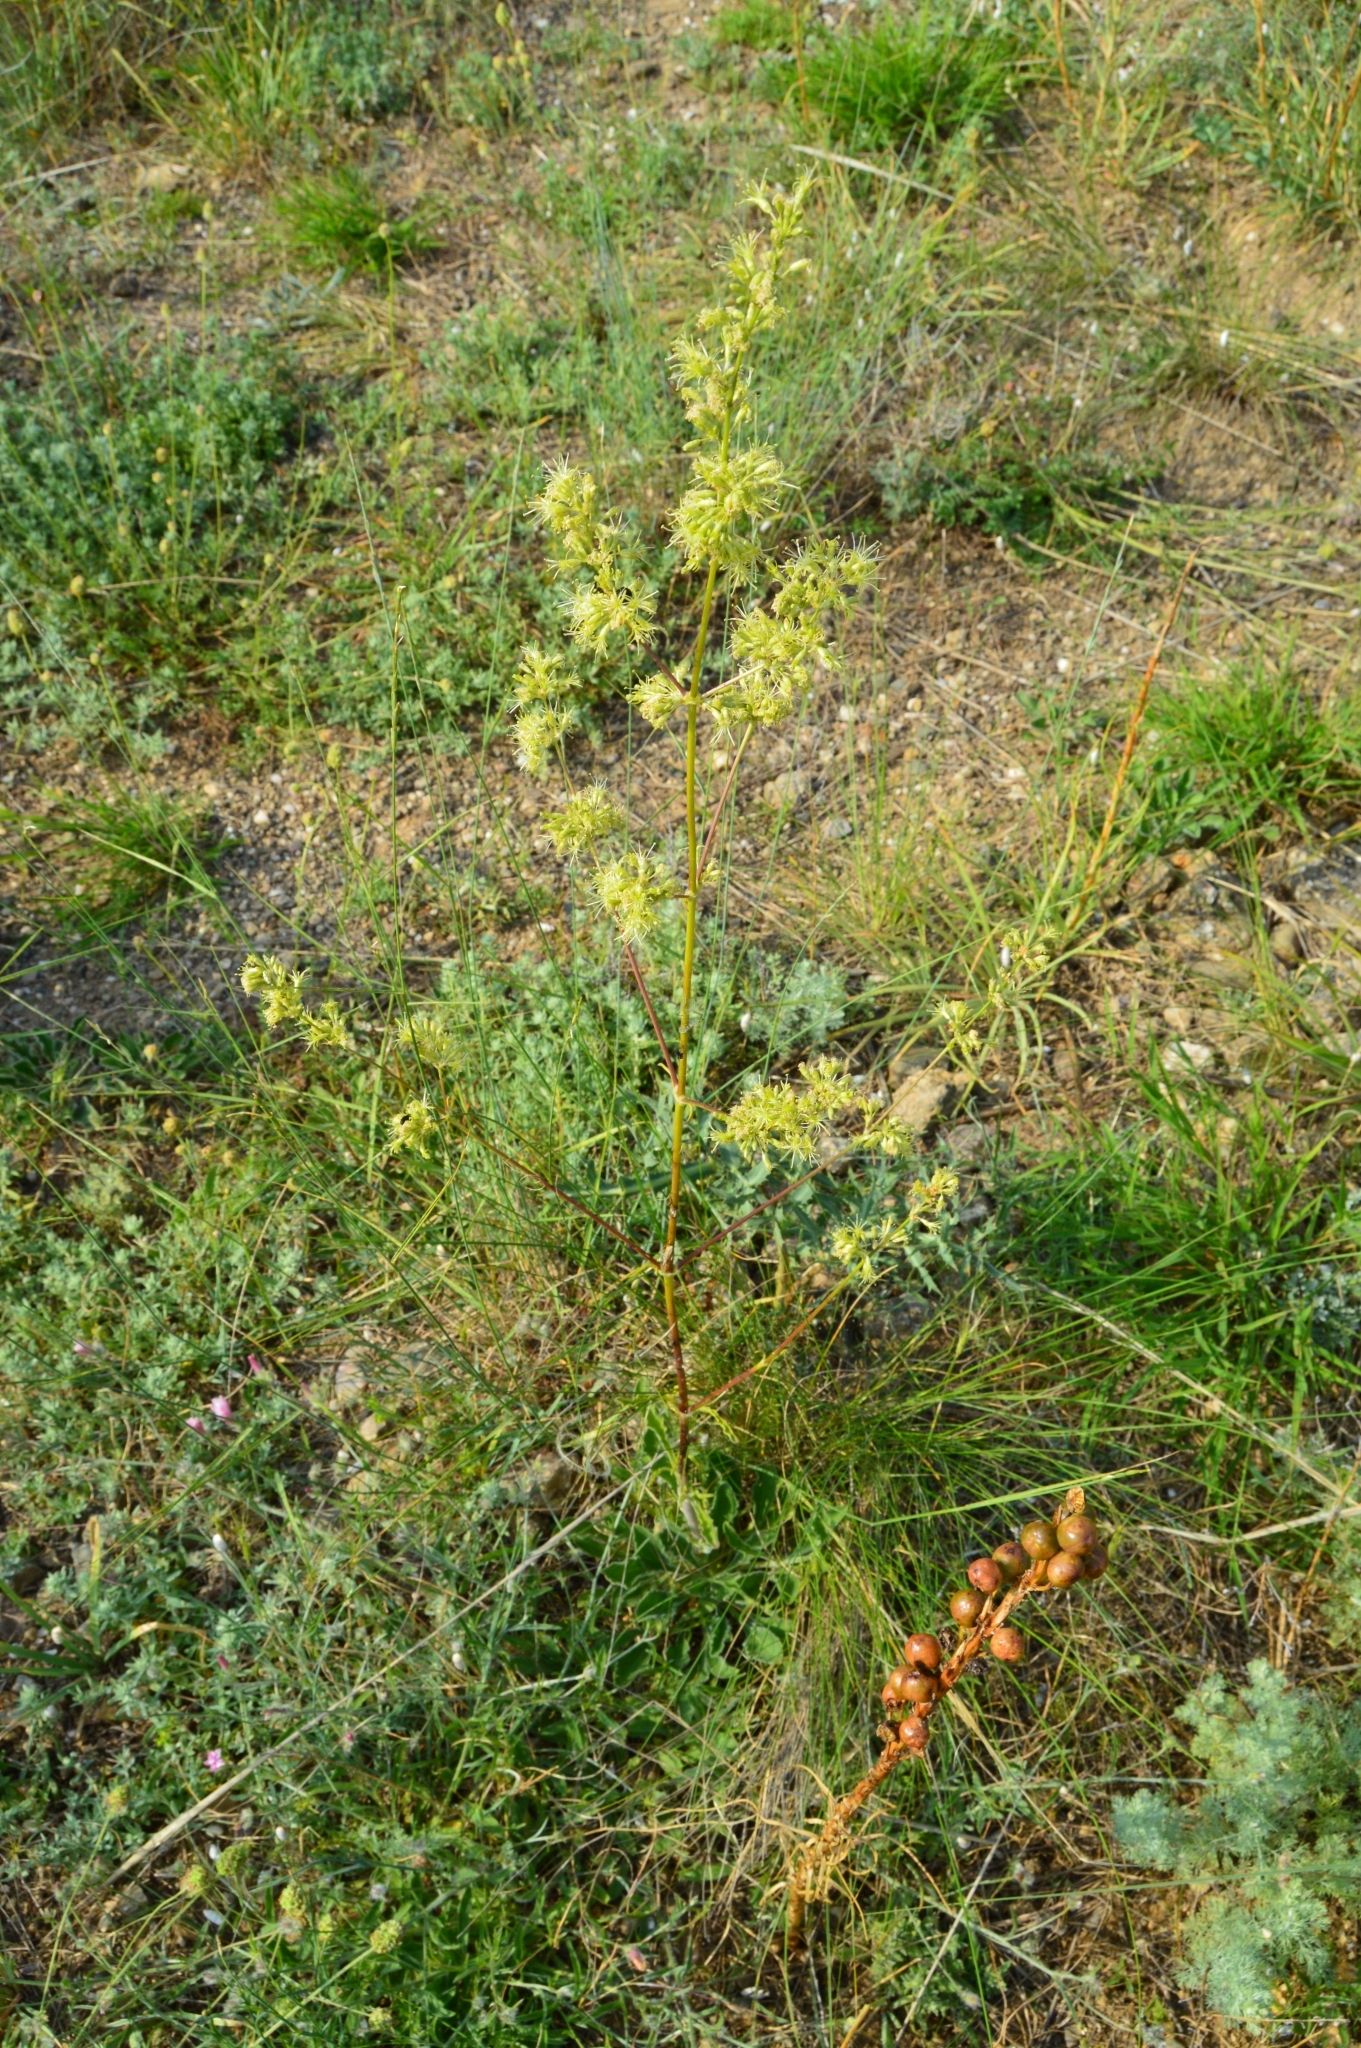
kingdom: Plantae
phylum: Tracheophyta
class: Magnoliopsida
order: Caryophyllales
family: Caryophyllaceae
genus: Silene
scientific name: Silene densiflora
